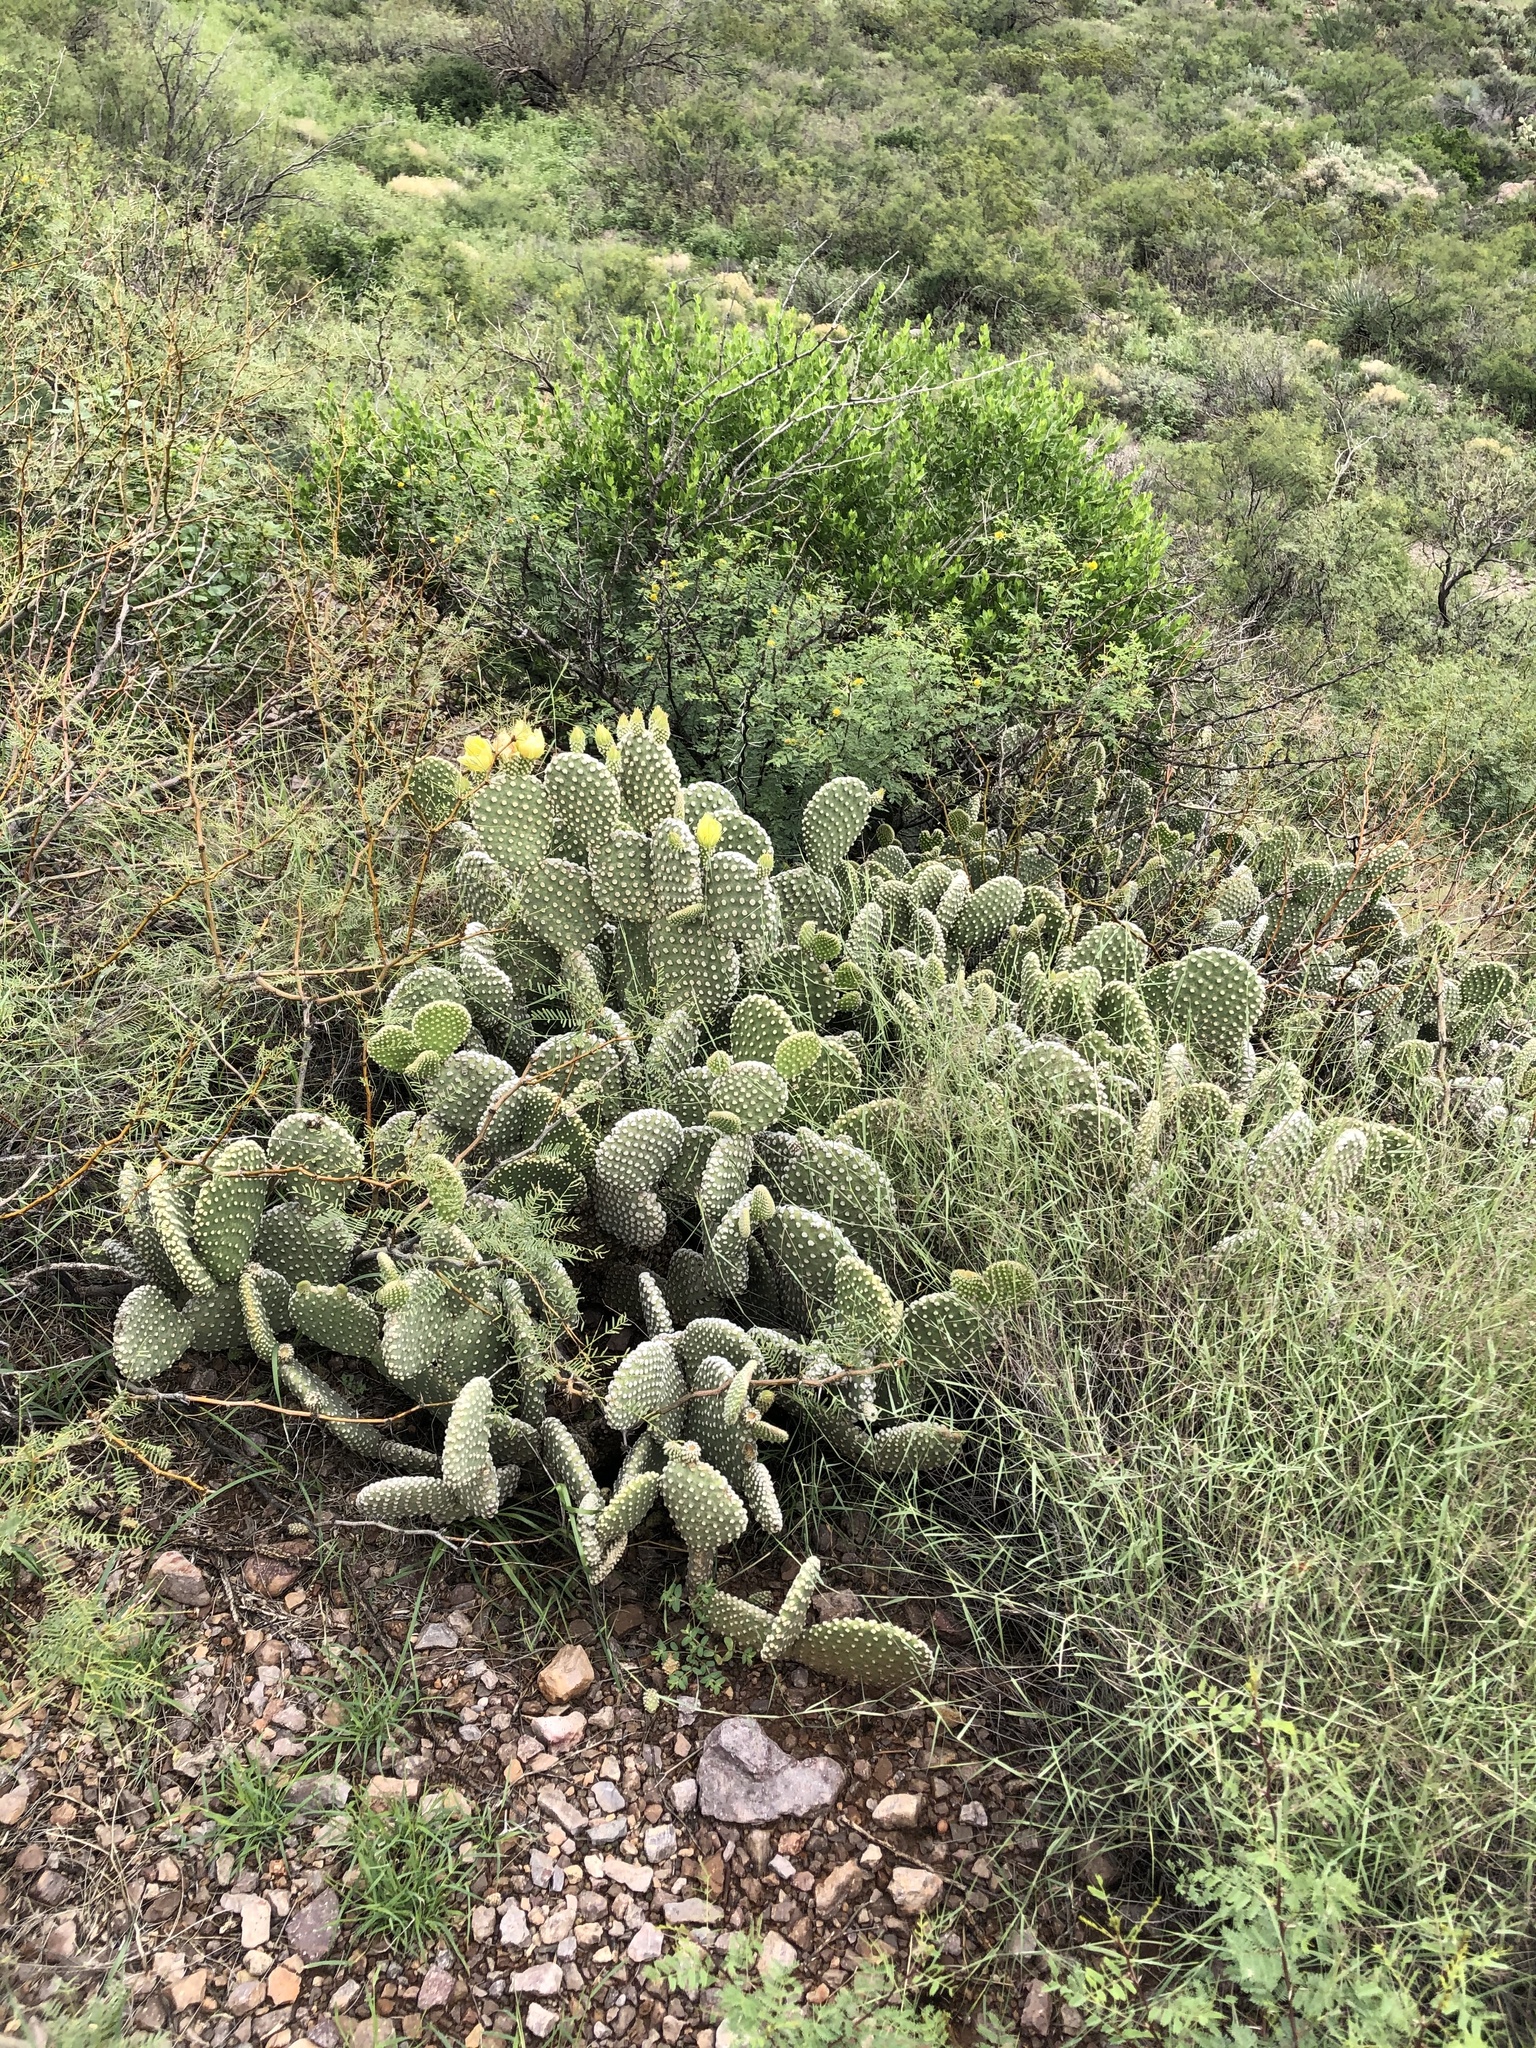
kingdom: Plantae
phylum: Tracheophyta
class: Magnoliopsida
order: Caryophyllales
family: Cactaceae
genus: Opuntia
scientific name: Opuntia microdasys
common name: Angel's-wings
